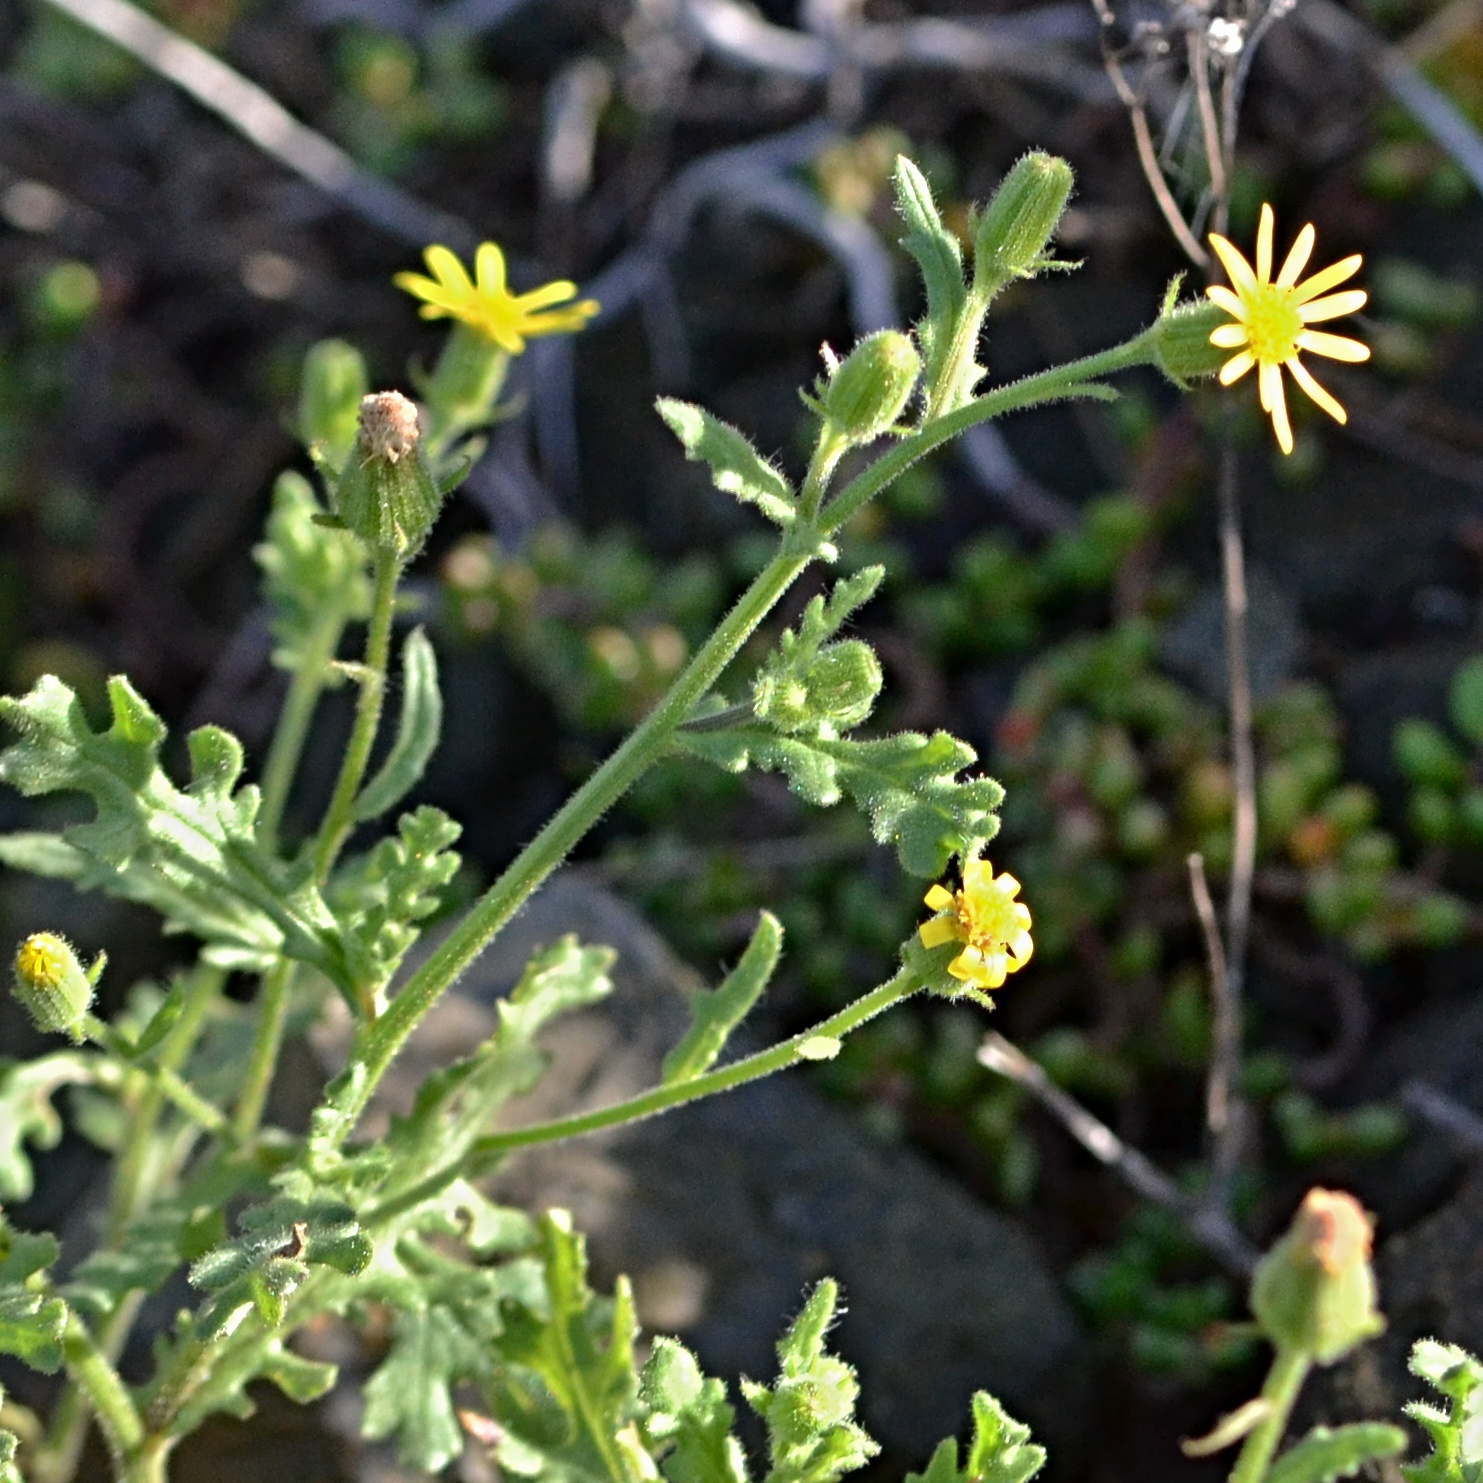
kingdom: Plantae
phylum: Tracheophyta
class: Magnoliopsida
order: Asterales
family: Asteraceae
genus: Senecio
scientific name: Senecio viscosus
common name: Sticky groundsel
